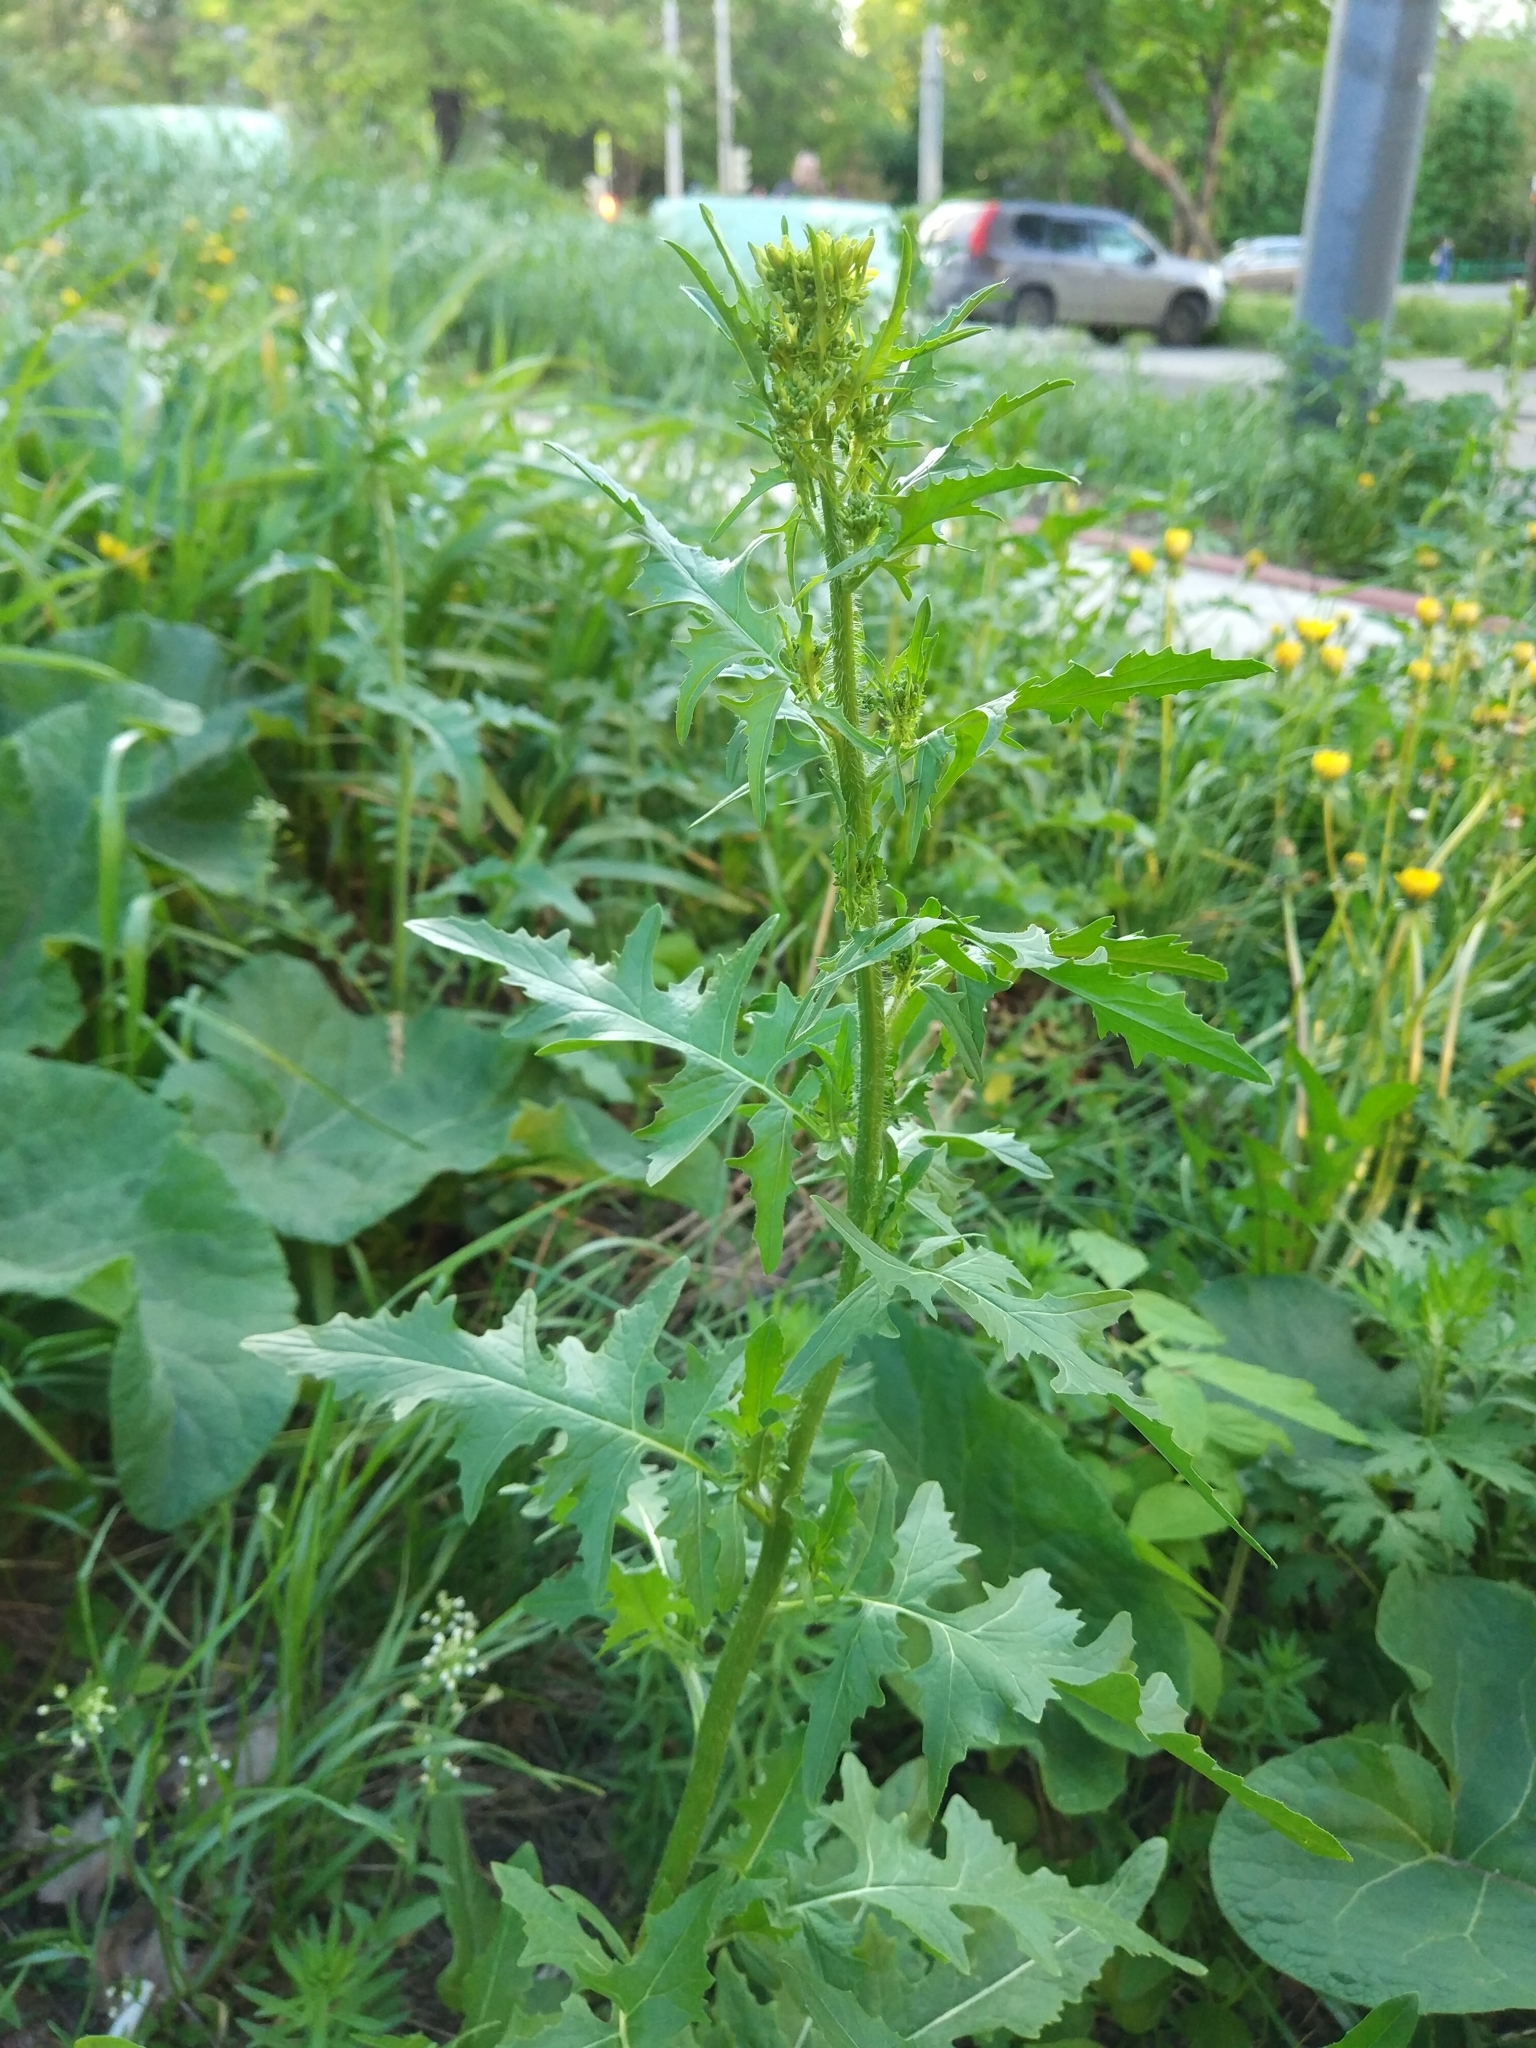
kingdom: Plantae
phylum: Tracheophyta
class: Magnoliopsida
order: Brassicales
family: Brassicaceae
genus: Sisymbrium
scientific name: Sisymbrium loeselii
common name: False london-rocket
